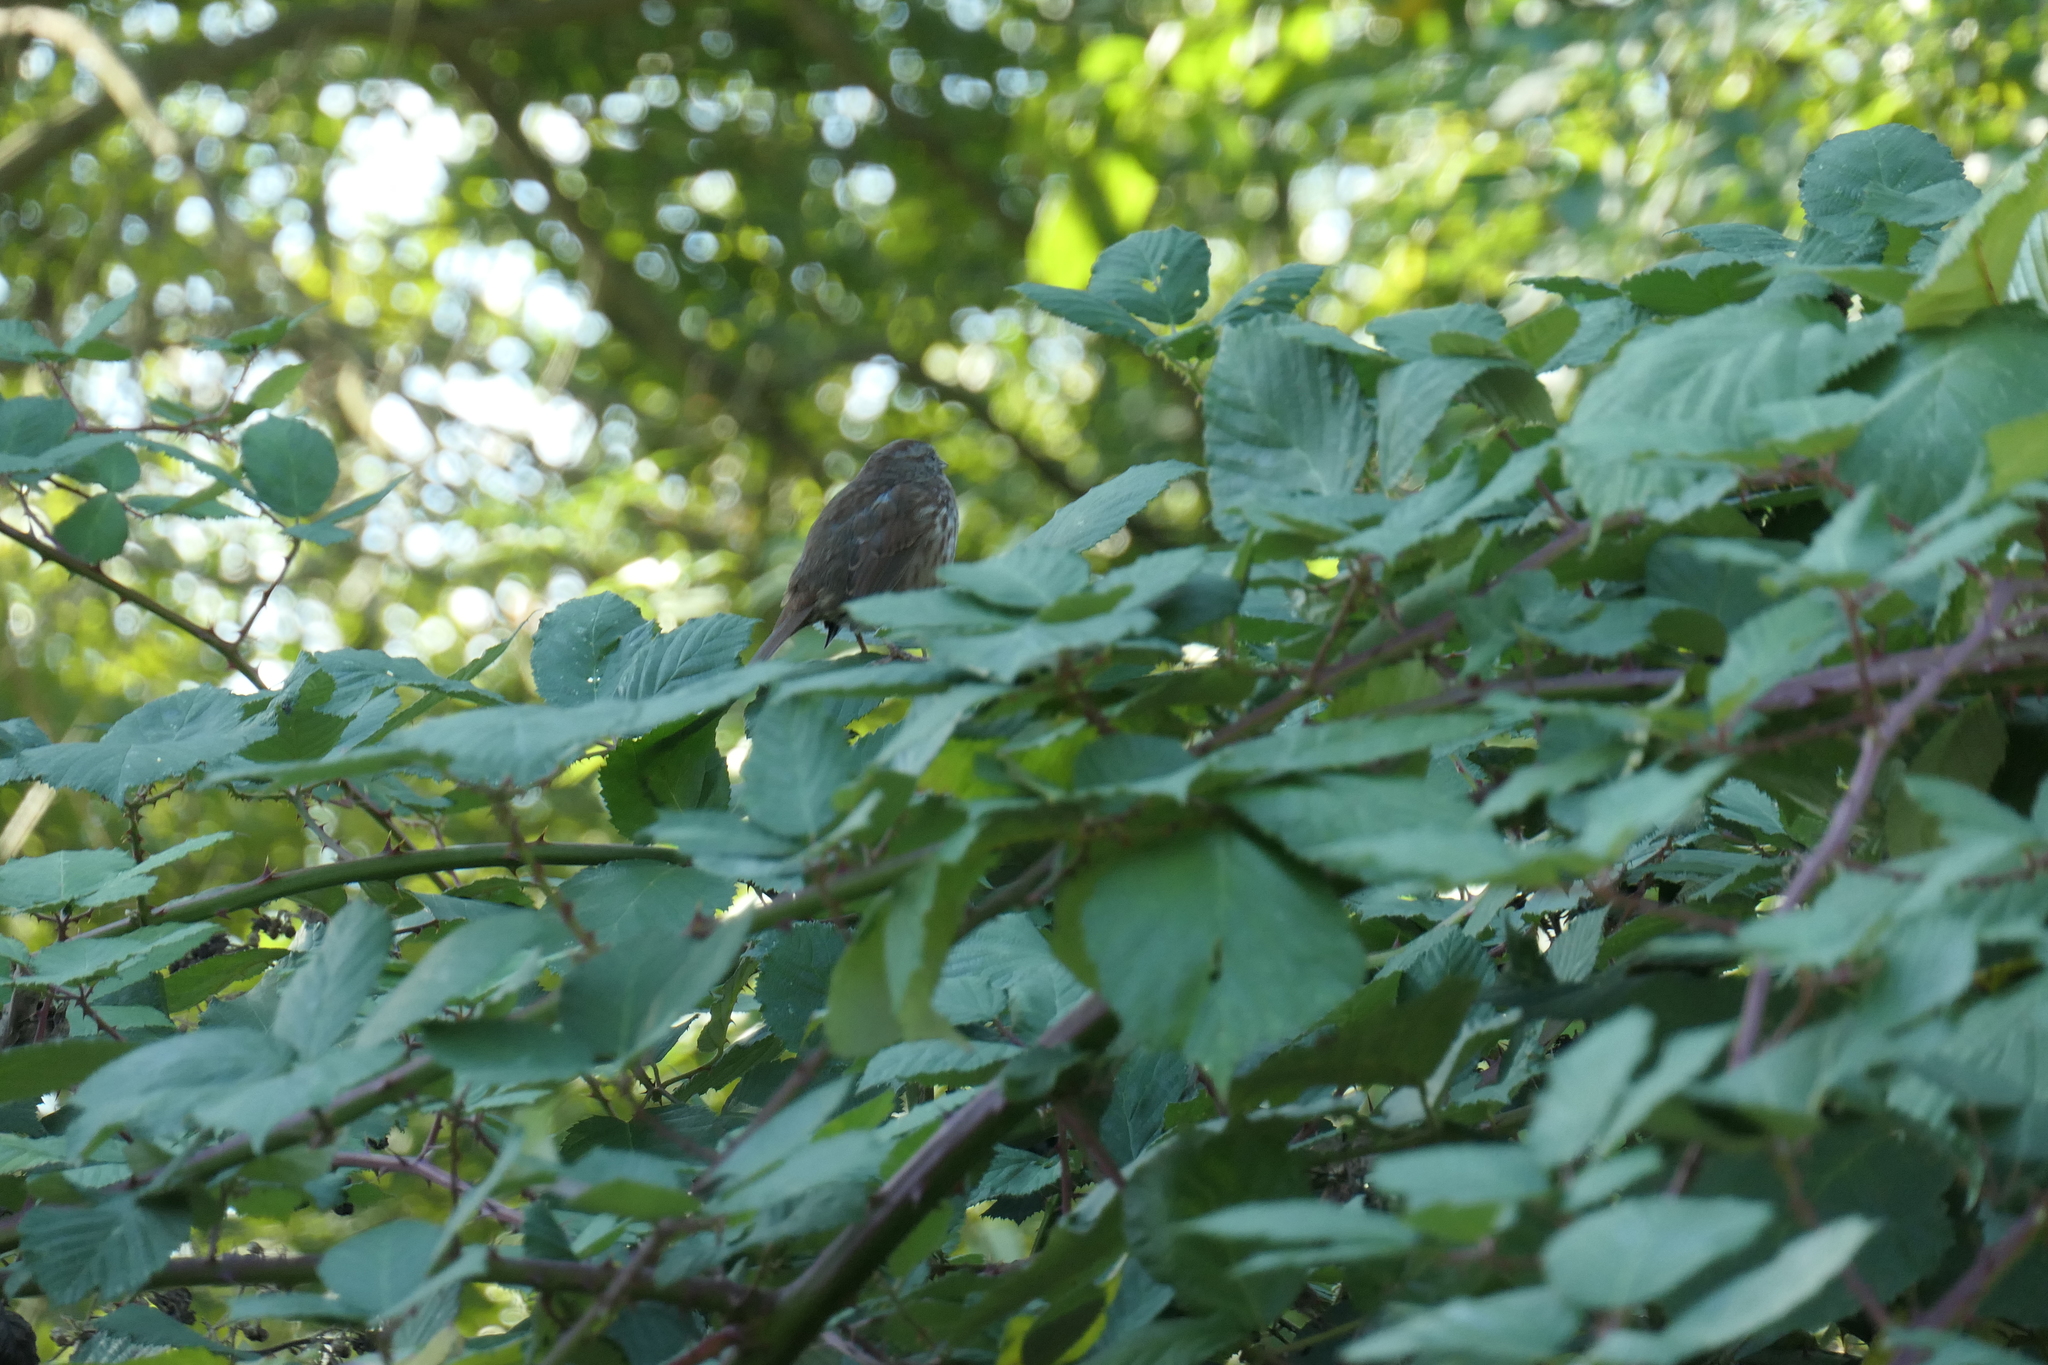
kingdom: Animalia
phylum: Chordata
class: Aves
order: Passeriformes
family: Passerellidae
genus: Melospiza
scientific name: Melospiza melodia
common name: Song sparrow
